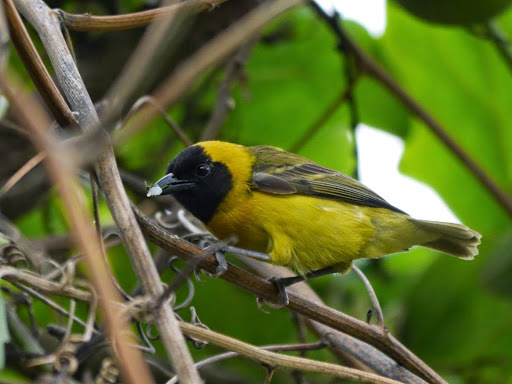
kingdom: Animalia
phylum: Chordata
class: Aves
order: Passeriformes
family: Ploceidae
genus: Ploceus
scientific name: Ploceus pelzelni
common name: Slender-billed weaver
